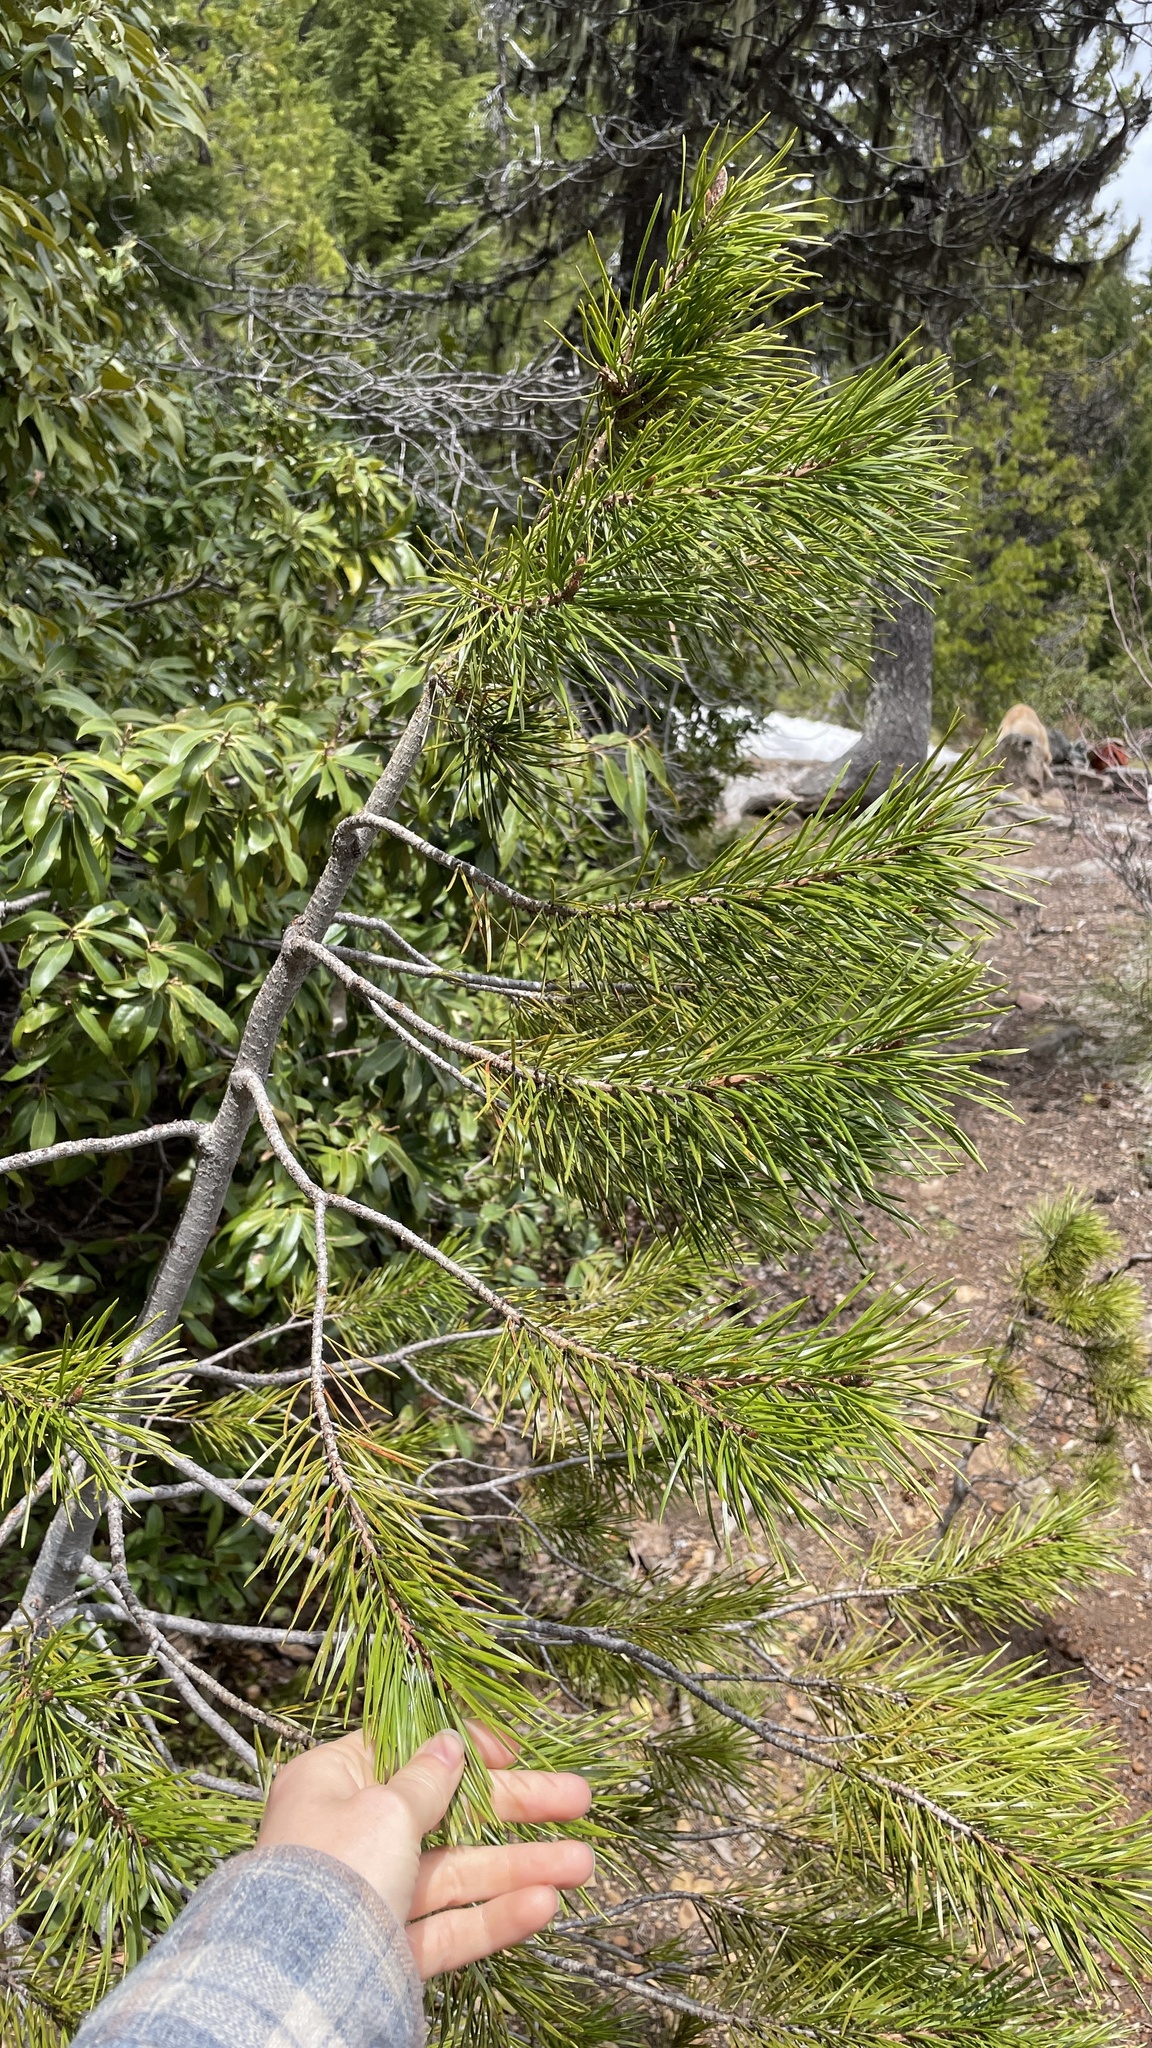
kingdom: Plantae
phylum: Tracheophyta
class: Pinopsida
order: Pinales
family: Pinaceae
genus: Pinus
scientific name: Pinus contorta
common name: Lodgepole pine
